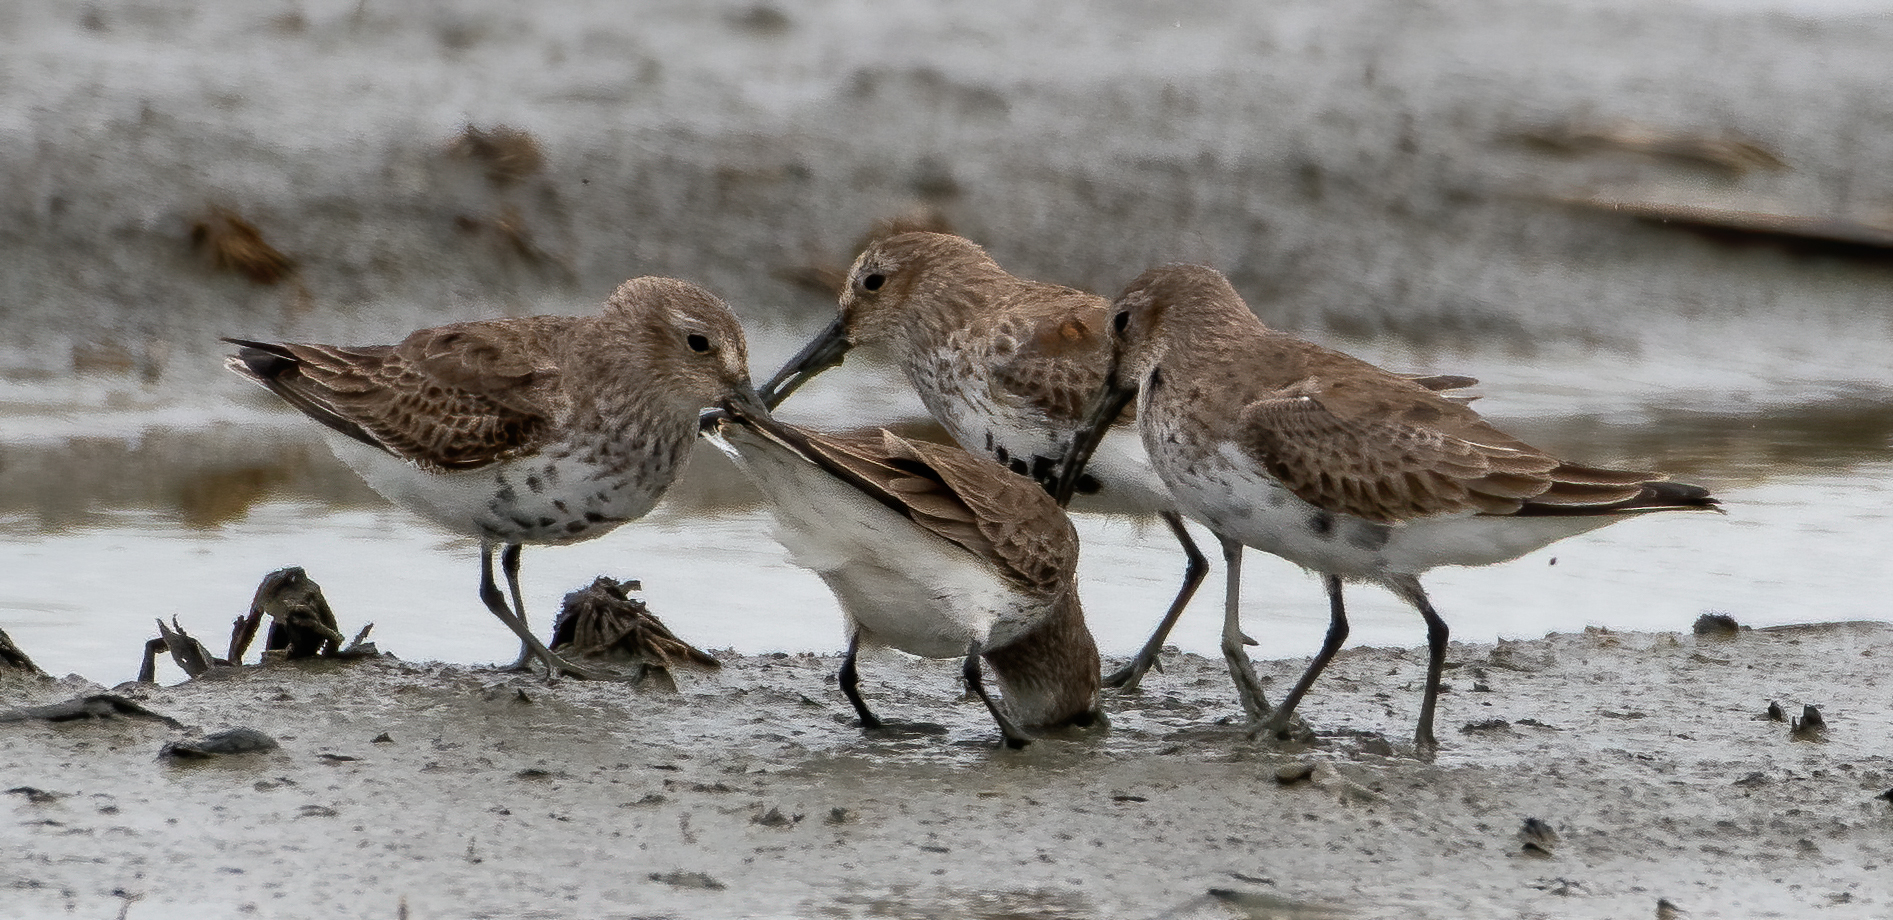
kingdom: Animalia
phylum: Chordata
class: Aves
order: Charadriiformes
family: Scolopacidae
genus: Calidris
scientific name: Calidris alpina
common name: Dunlin
